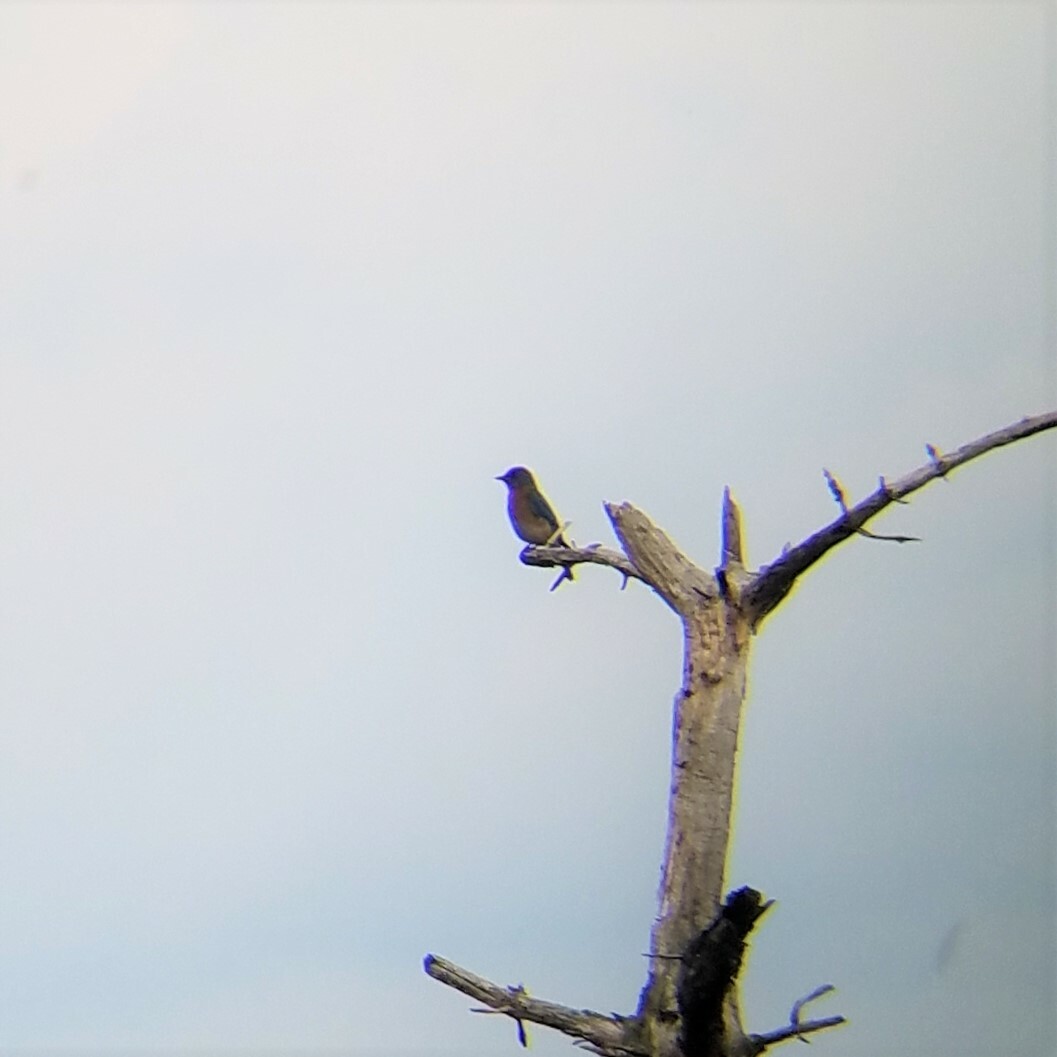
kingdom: Animalia
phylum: Chordata
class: Aves
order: Passeriformes
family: Turdidae
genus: Sialia
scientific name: Sialia sialis
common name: Eastern bluebird
